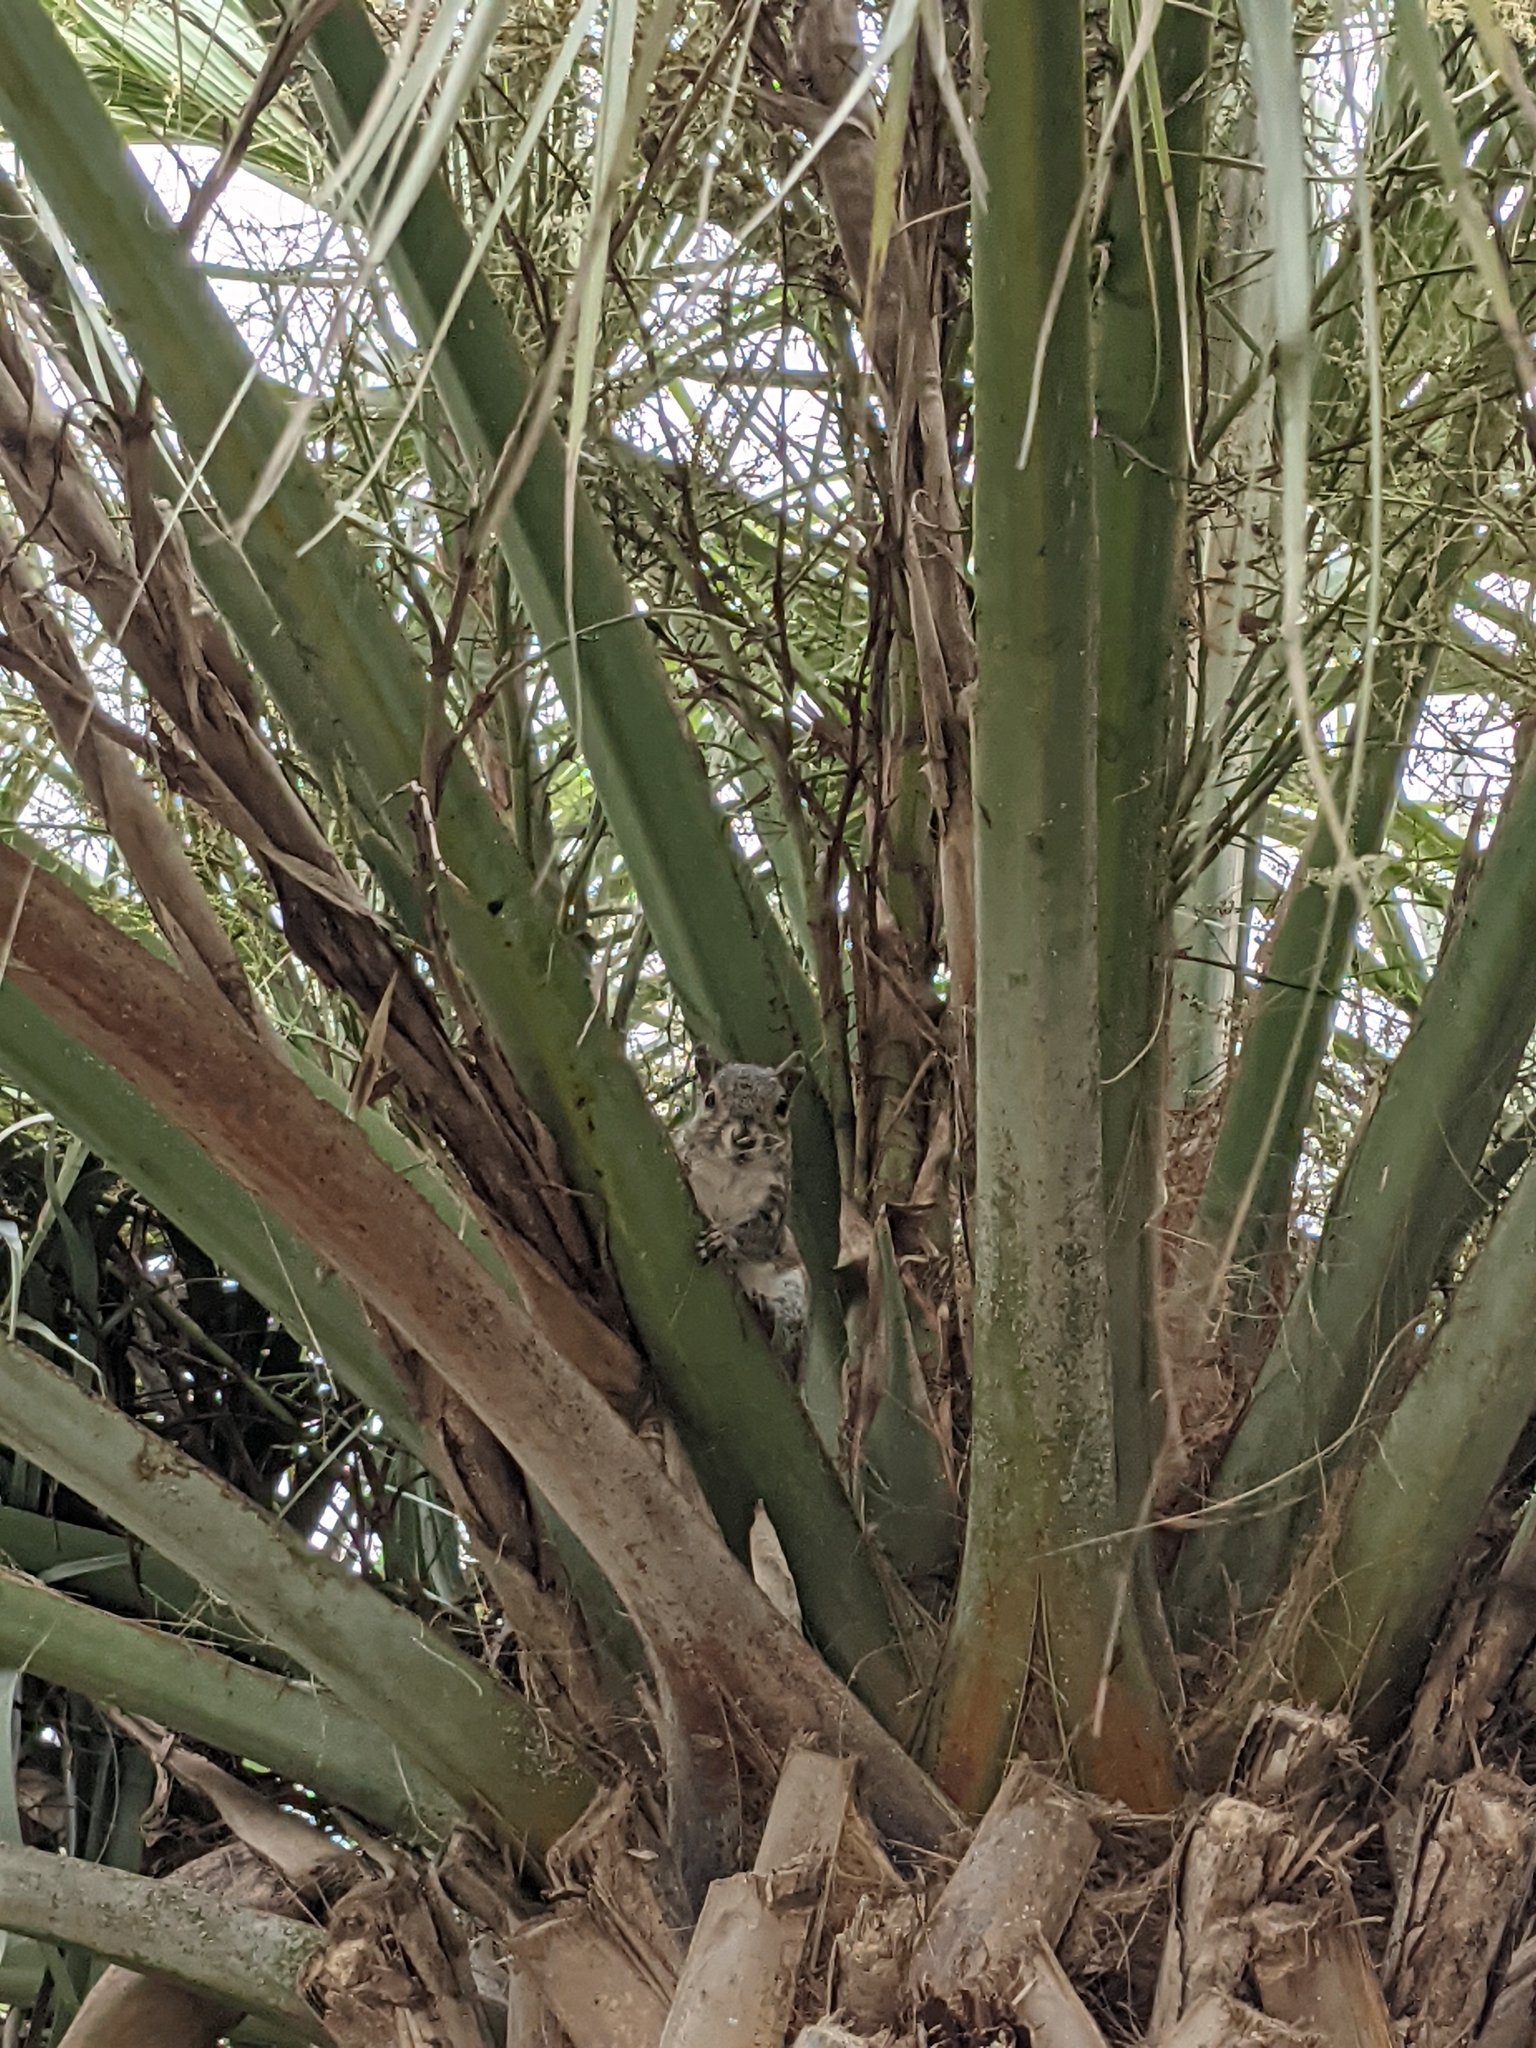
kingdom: Animalia
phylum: Chordata
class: Mammalia
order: Rodentia
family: Sciuridae
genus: Sciurus
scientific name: Sciurus carolinensis
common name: Eastern gray squirrel
